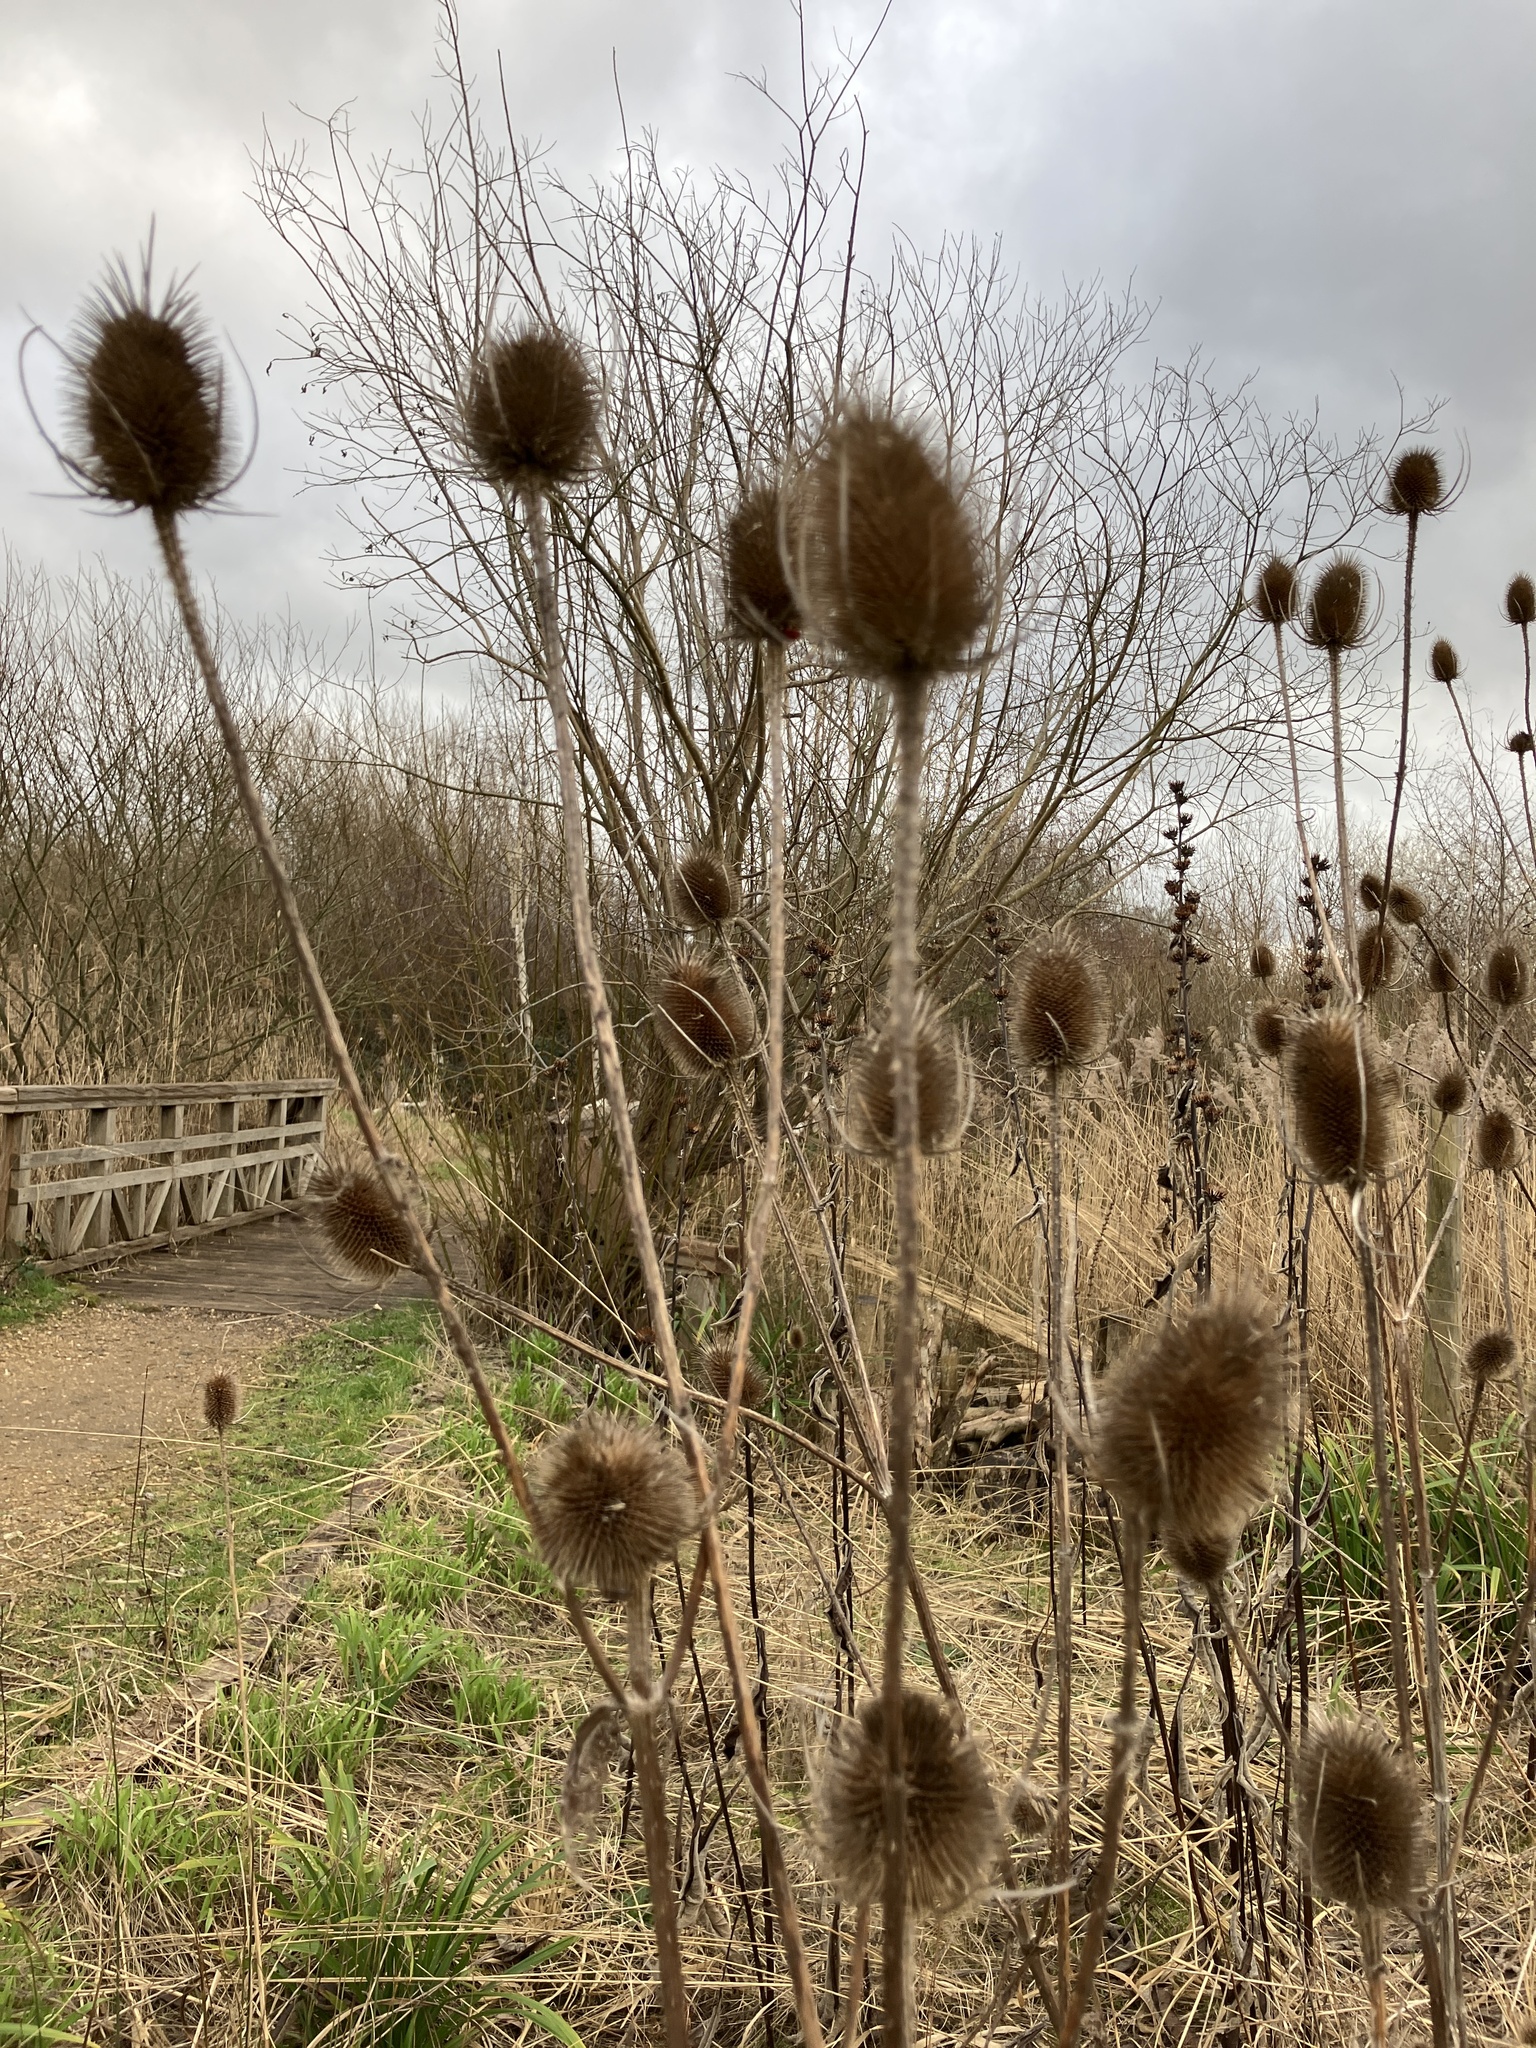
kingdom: Plantae
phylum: Tracheophyta
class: Magnoliopsida
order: Dipsacales
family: Caprifoliaceae
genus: Dipsacus
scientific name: Dipsacus fullonum
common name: Teasel
